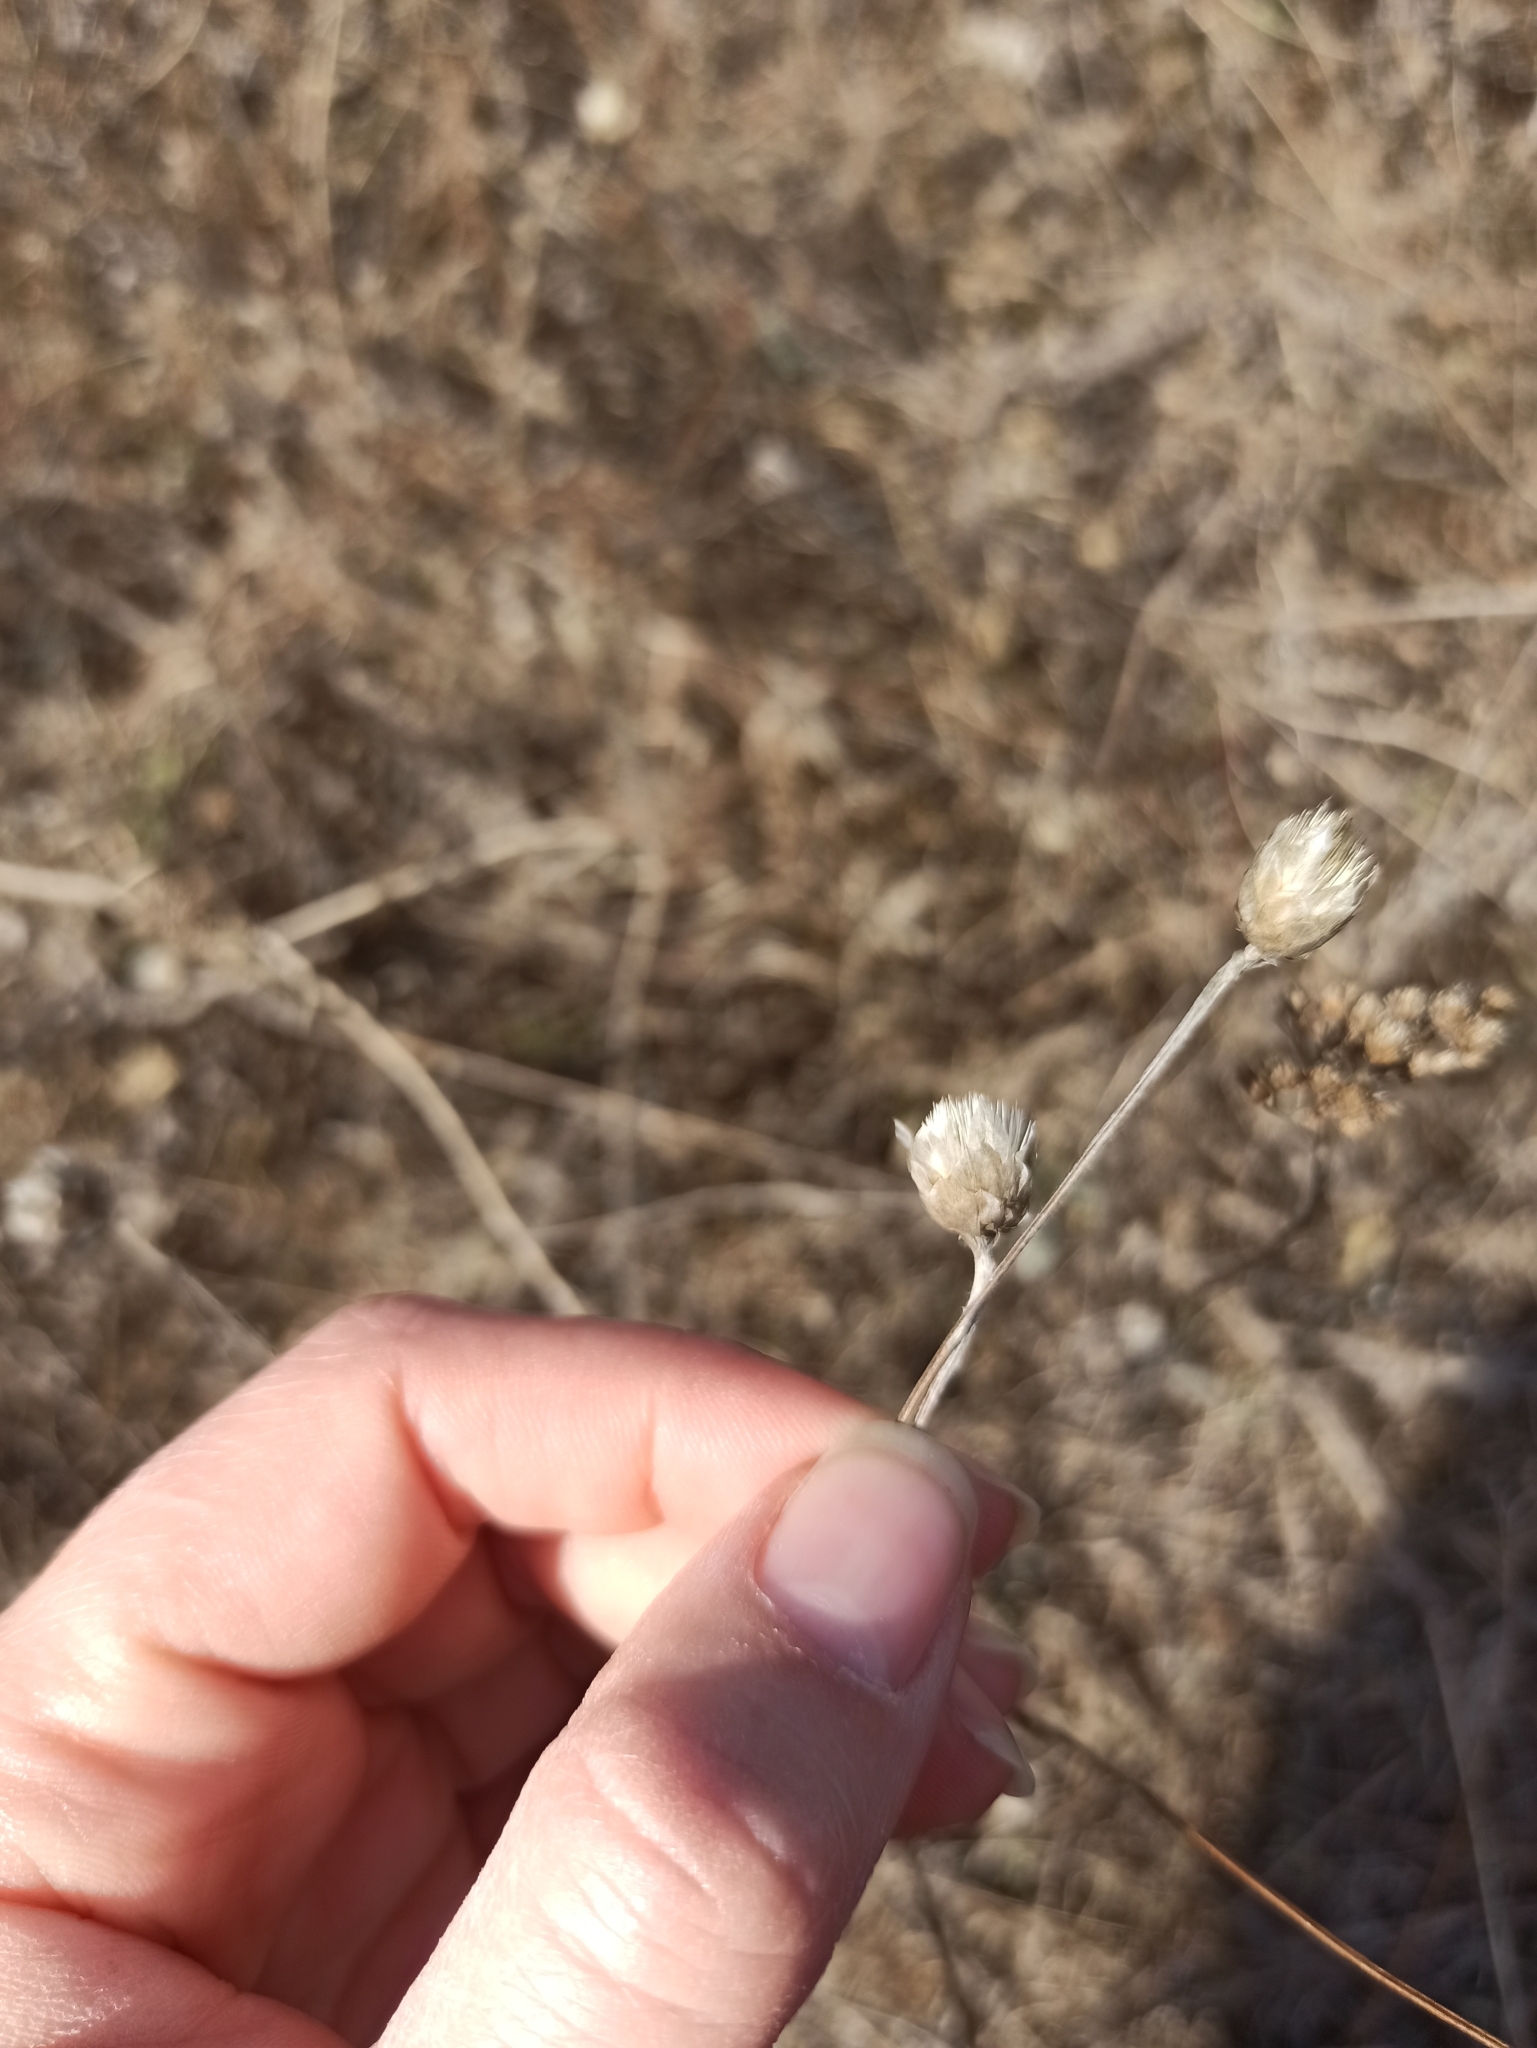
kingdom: Plantae
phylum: Tracheophyta
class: Magnoliopsida
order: Asterales
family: Asteraceae
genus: Xeranthemum
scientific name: Xeranthemum annuum
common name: Immortelle
